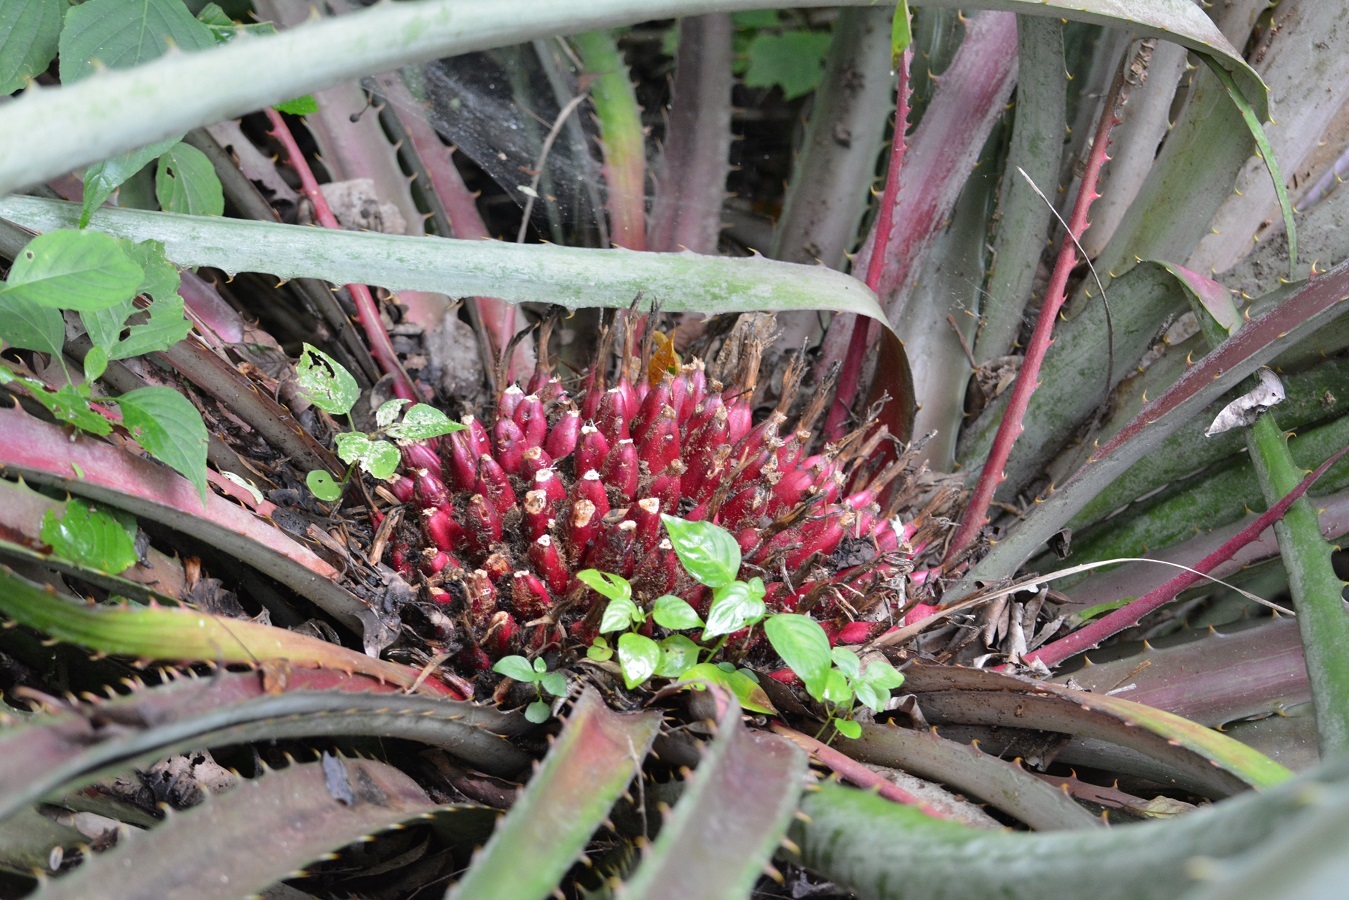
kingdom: Plantae
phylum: Tracheophyta
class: Liliopsida
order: Poales
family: Bromeliaceae
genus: Bromelia
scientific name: Bromelia karatas
